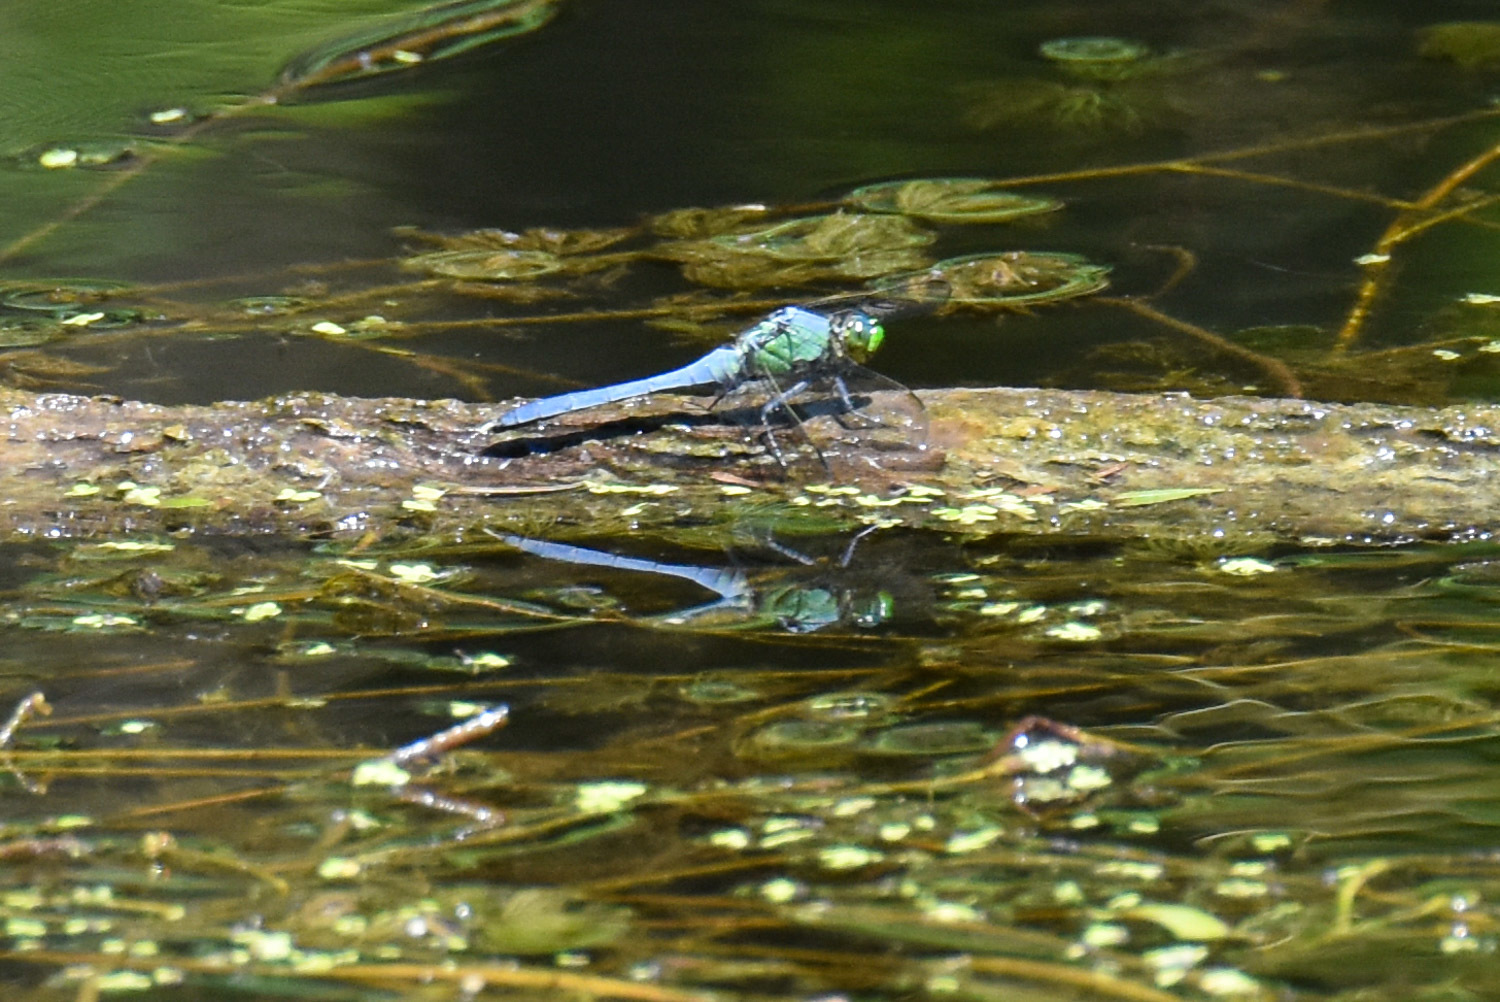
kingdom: Animalia
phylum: Arthropoda
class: Insecta
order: Odonata
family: Libellulidae
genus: Erythemis
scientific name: Erythemis simplicicollis
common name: Eastern pondhawk
